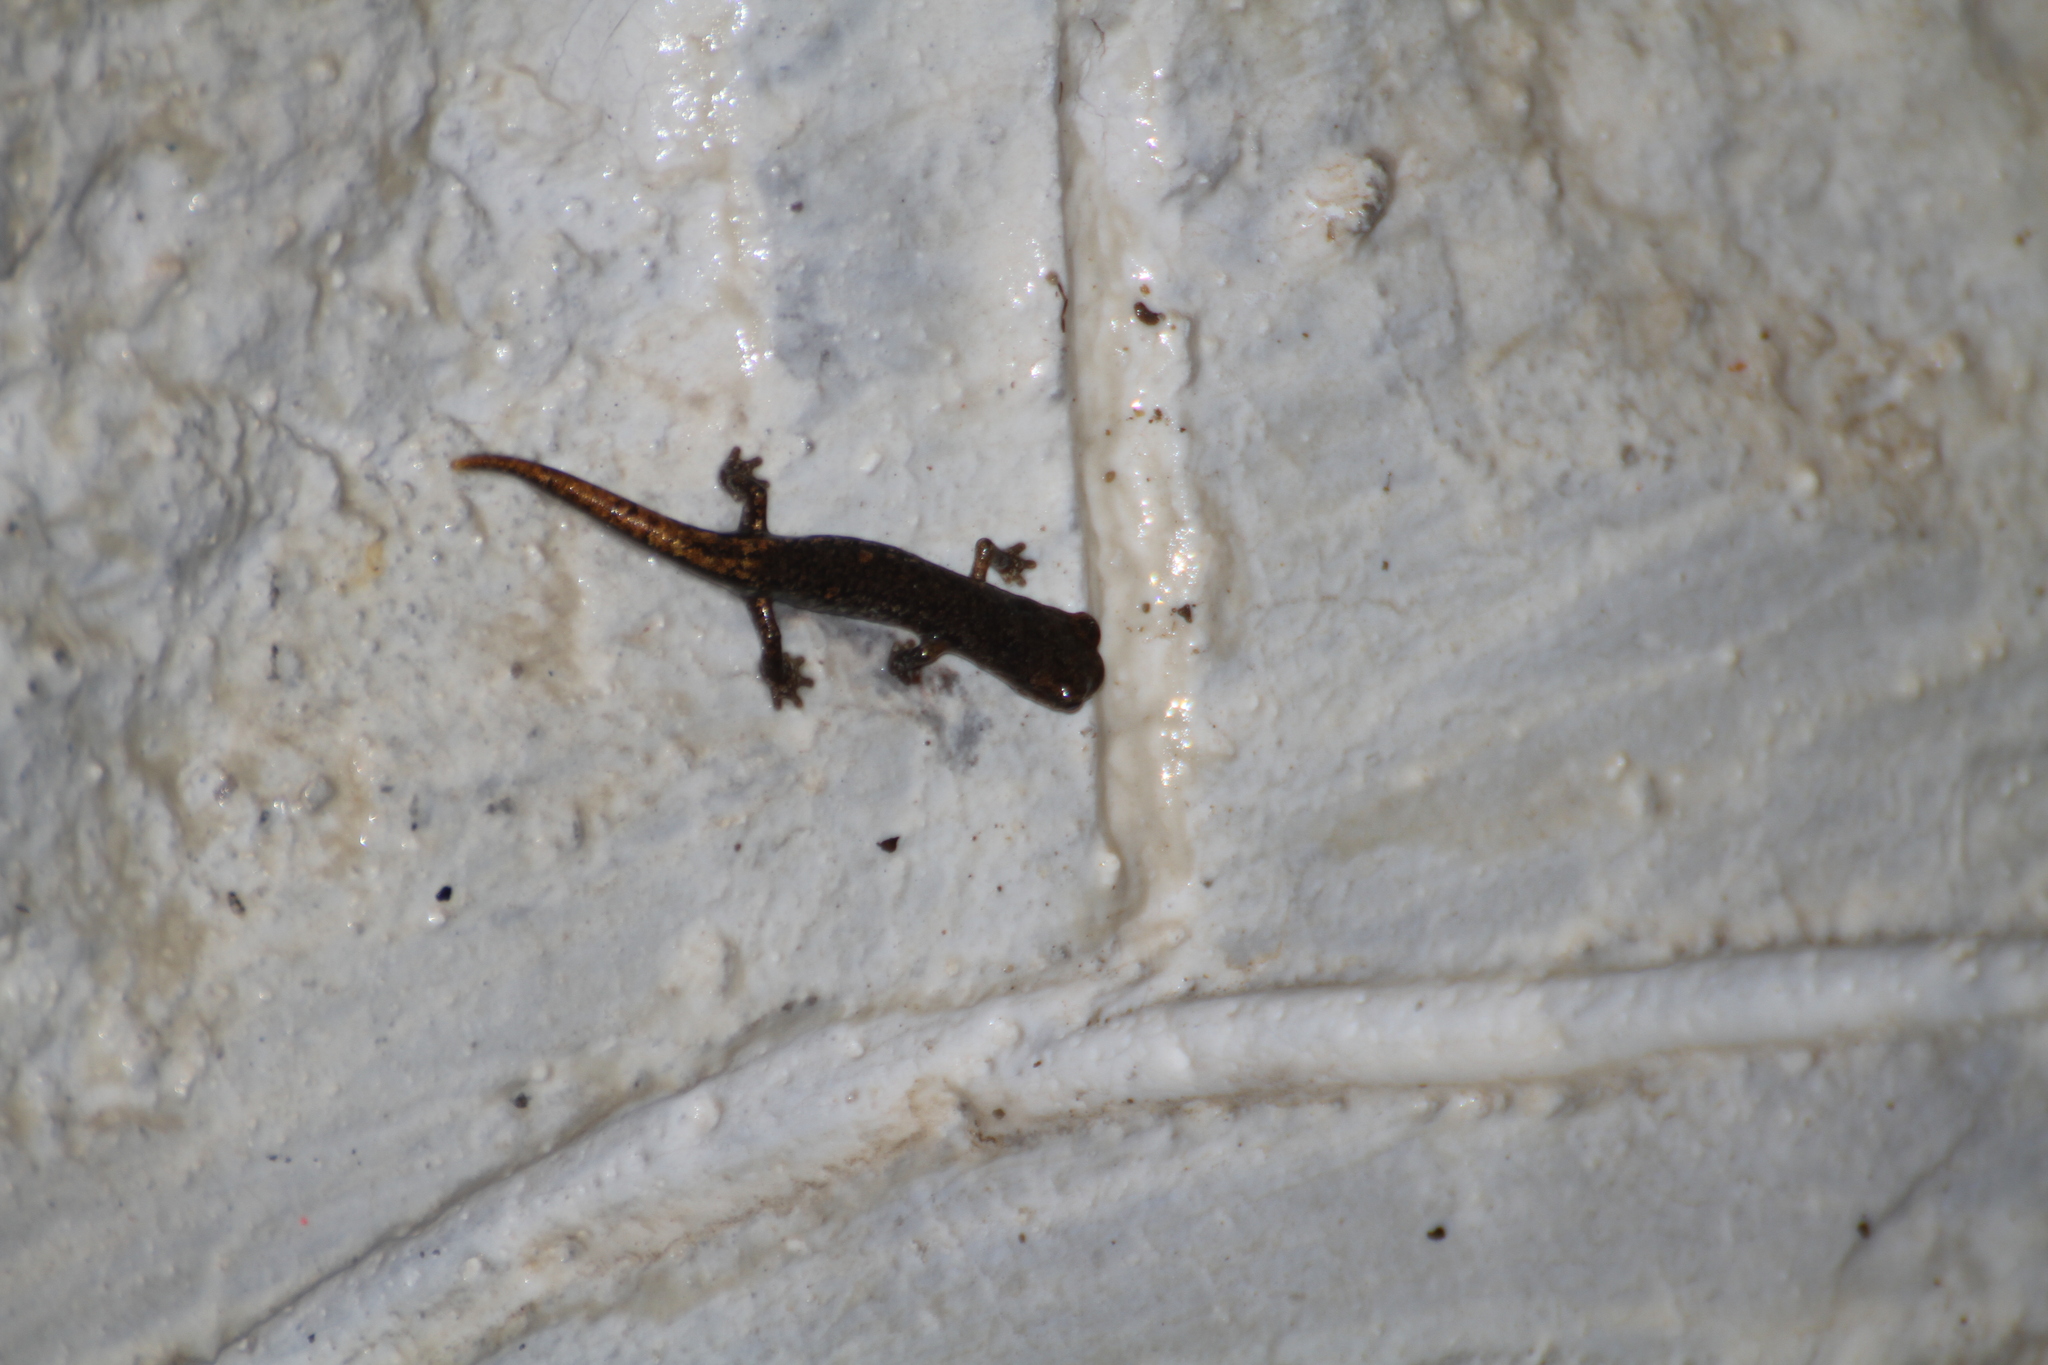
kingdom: Animalia
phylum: Chordata
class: Amphibia
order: Caudata
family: Plethodontidae
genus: Speleomantes
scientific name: Speleomantes strinatii
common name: French cave salamander
